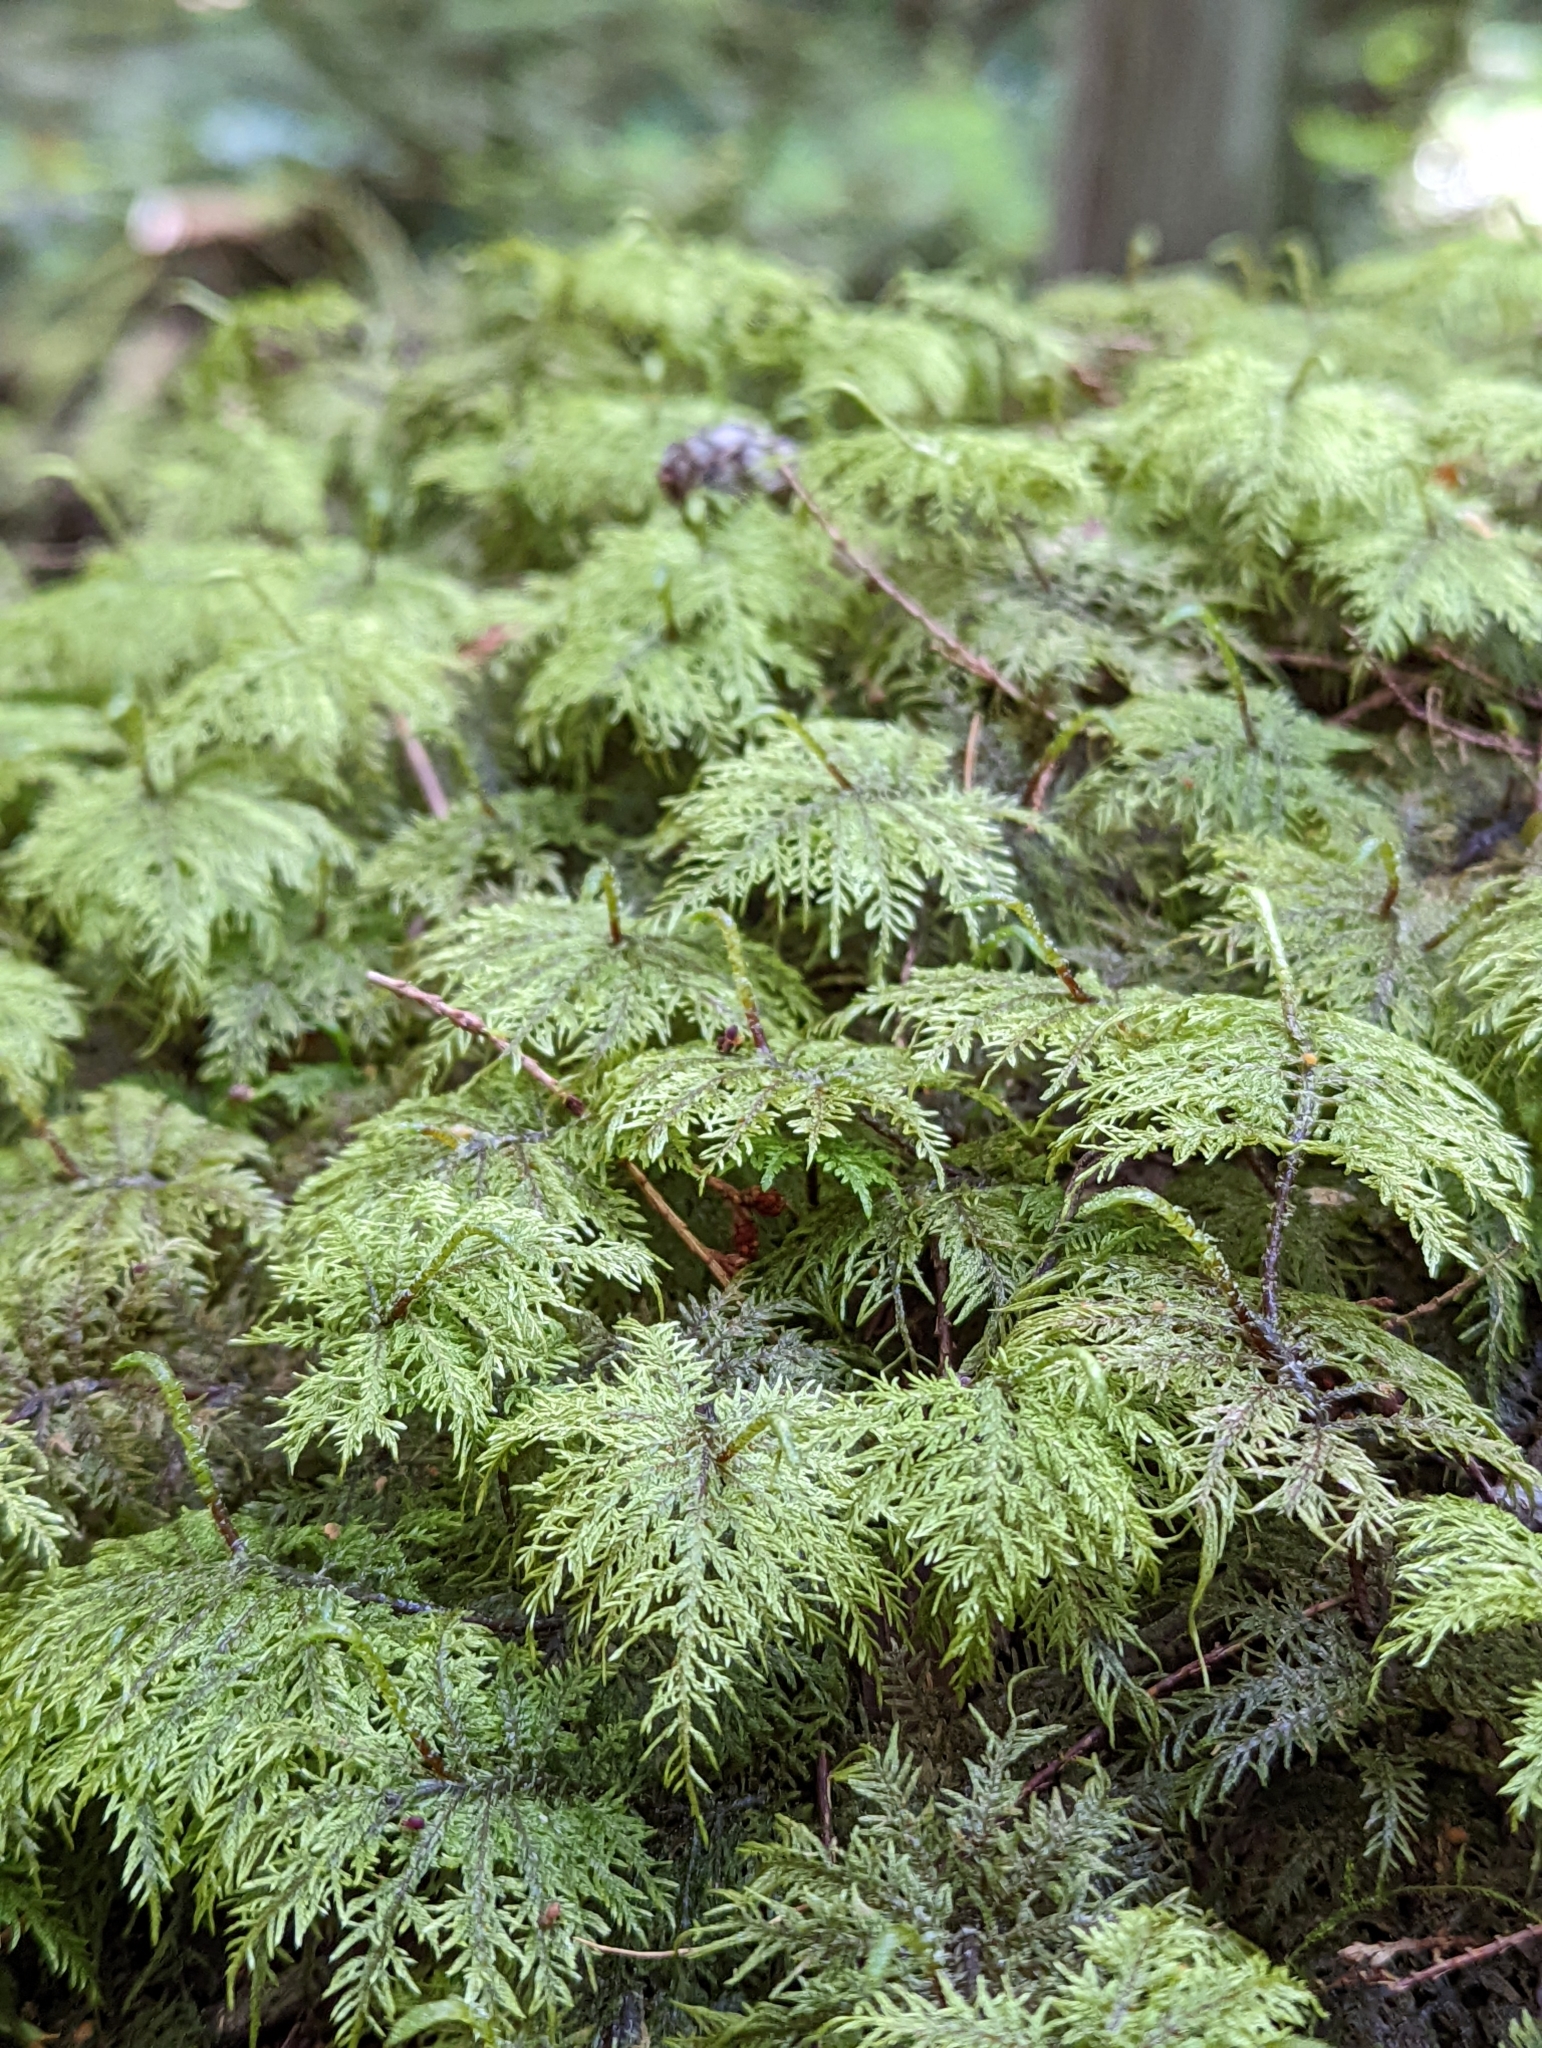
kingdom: Plantae
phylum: Bryophyta
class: Bryopsida
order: Hypnales
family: Hylocomiaceae
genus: Hylocomium
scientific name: Hylocomium splendens
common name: Stairstep moss
